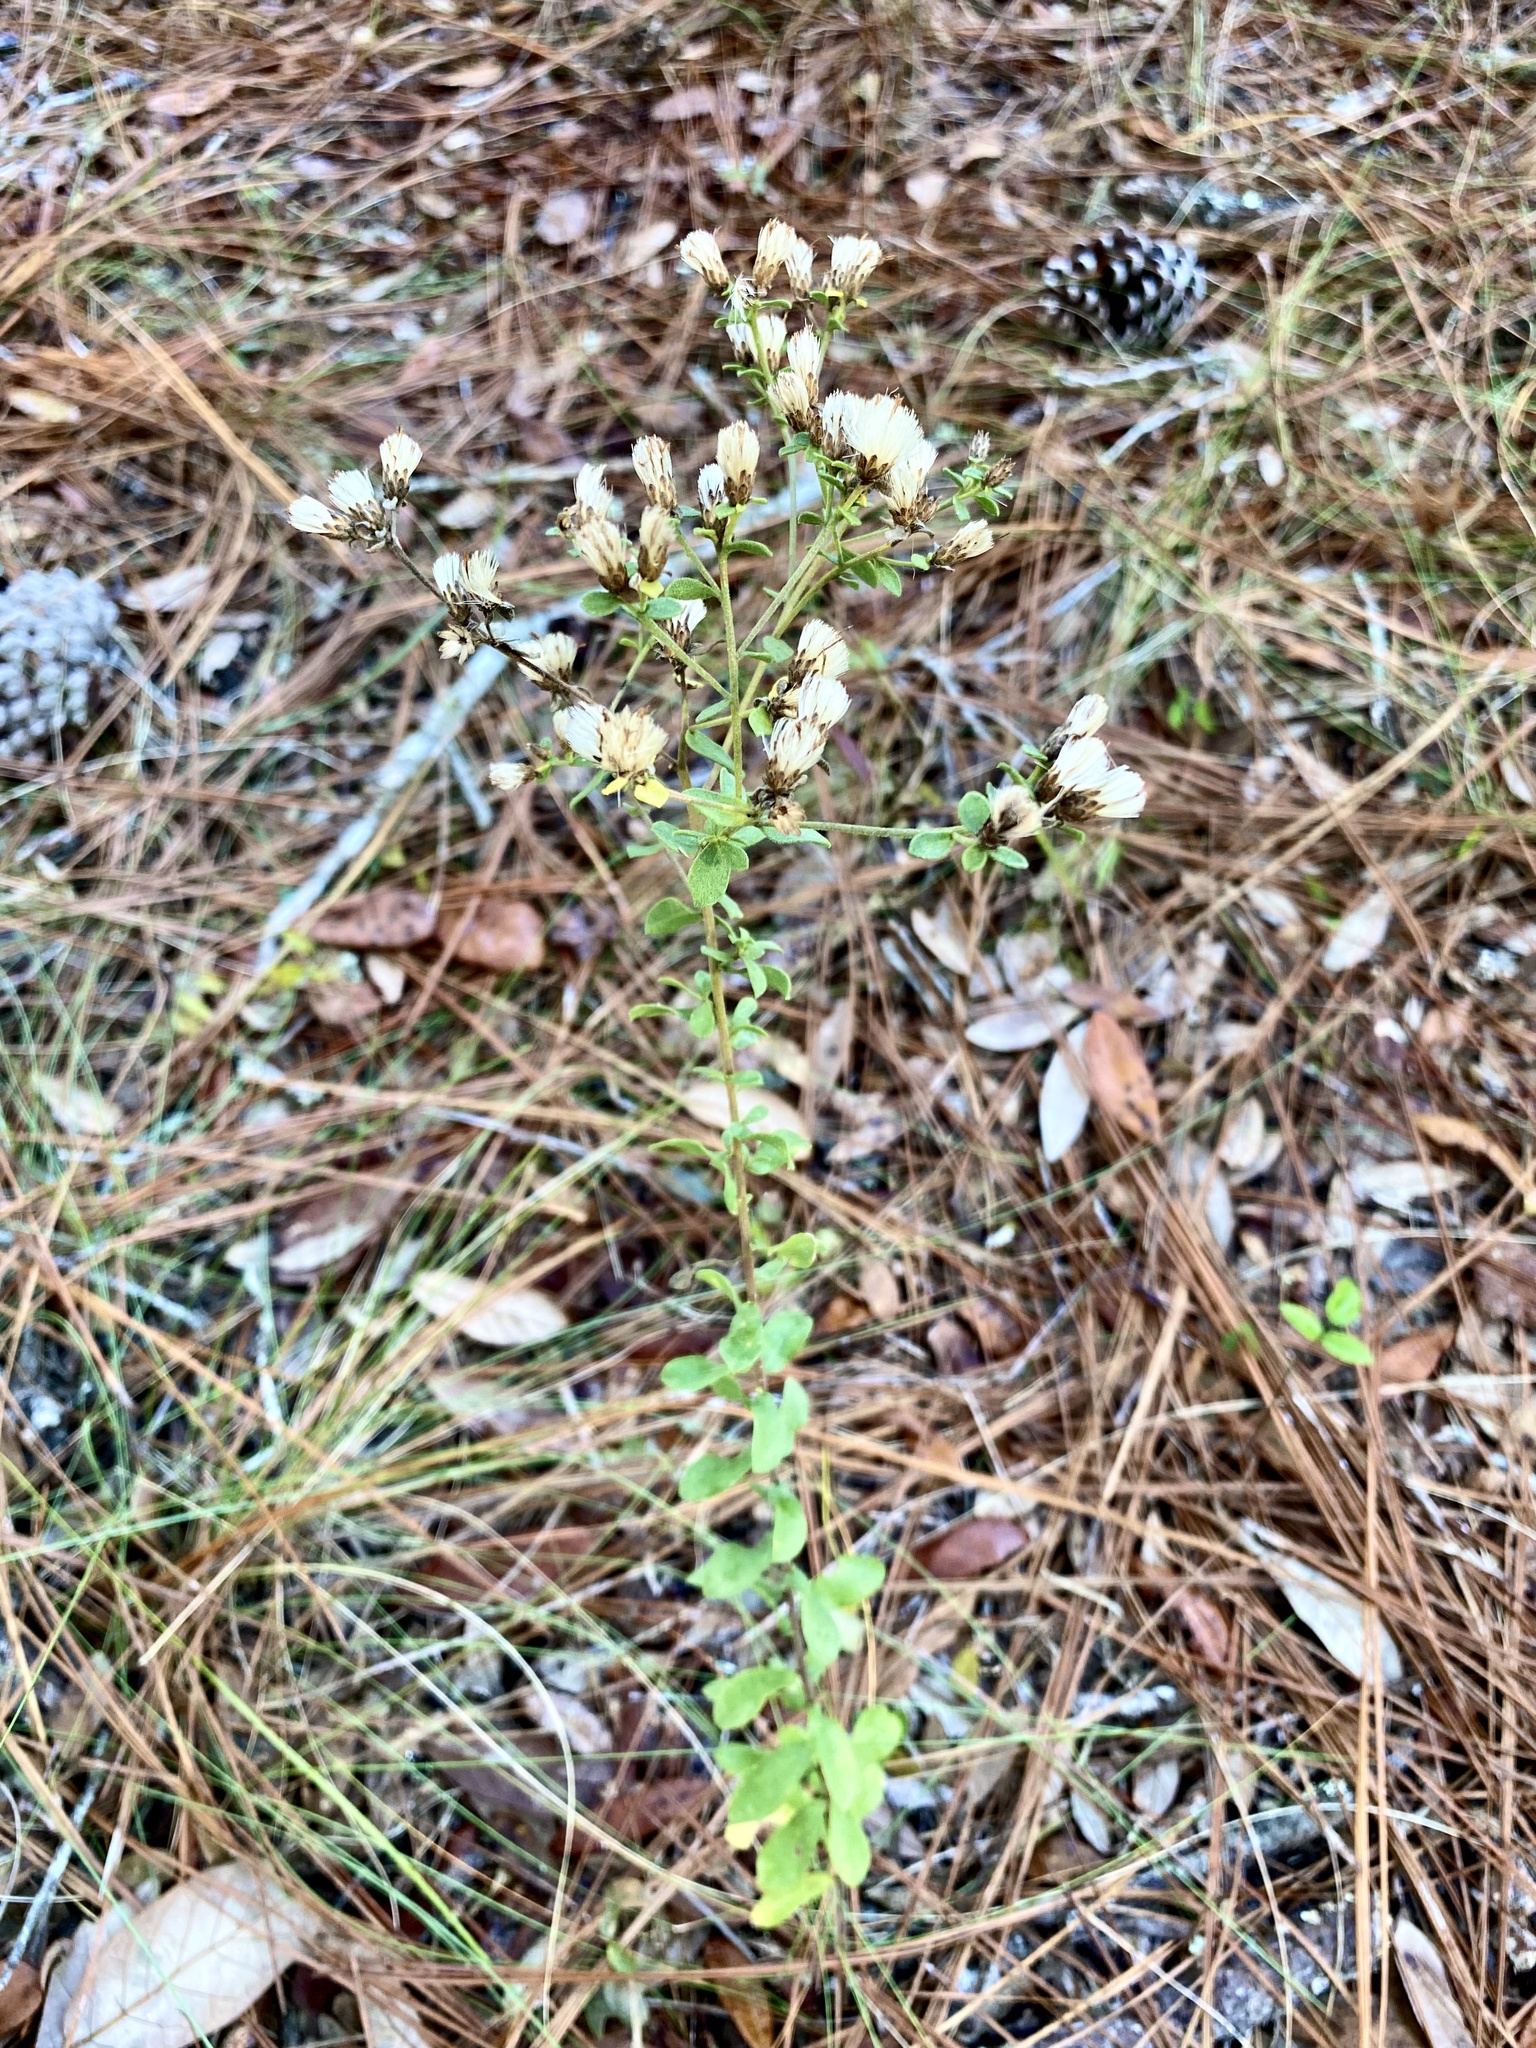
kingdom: Plantae
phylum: Tracheophyta
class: Magnoliopsida
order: Asterales
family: Asteraceae
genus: Sericocarpus
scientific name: Sericocarpus tortifolius
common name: Dixie aster
